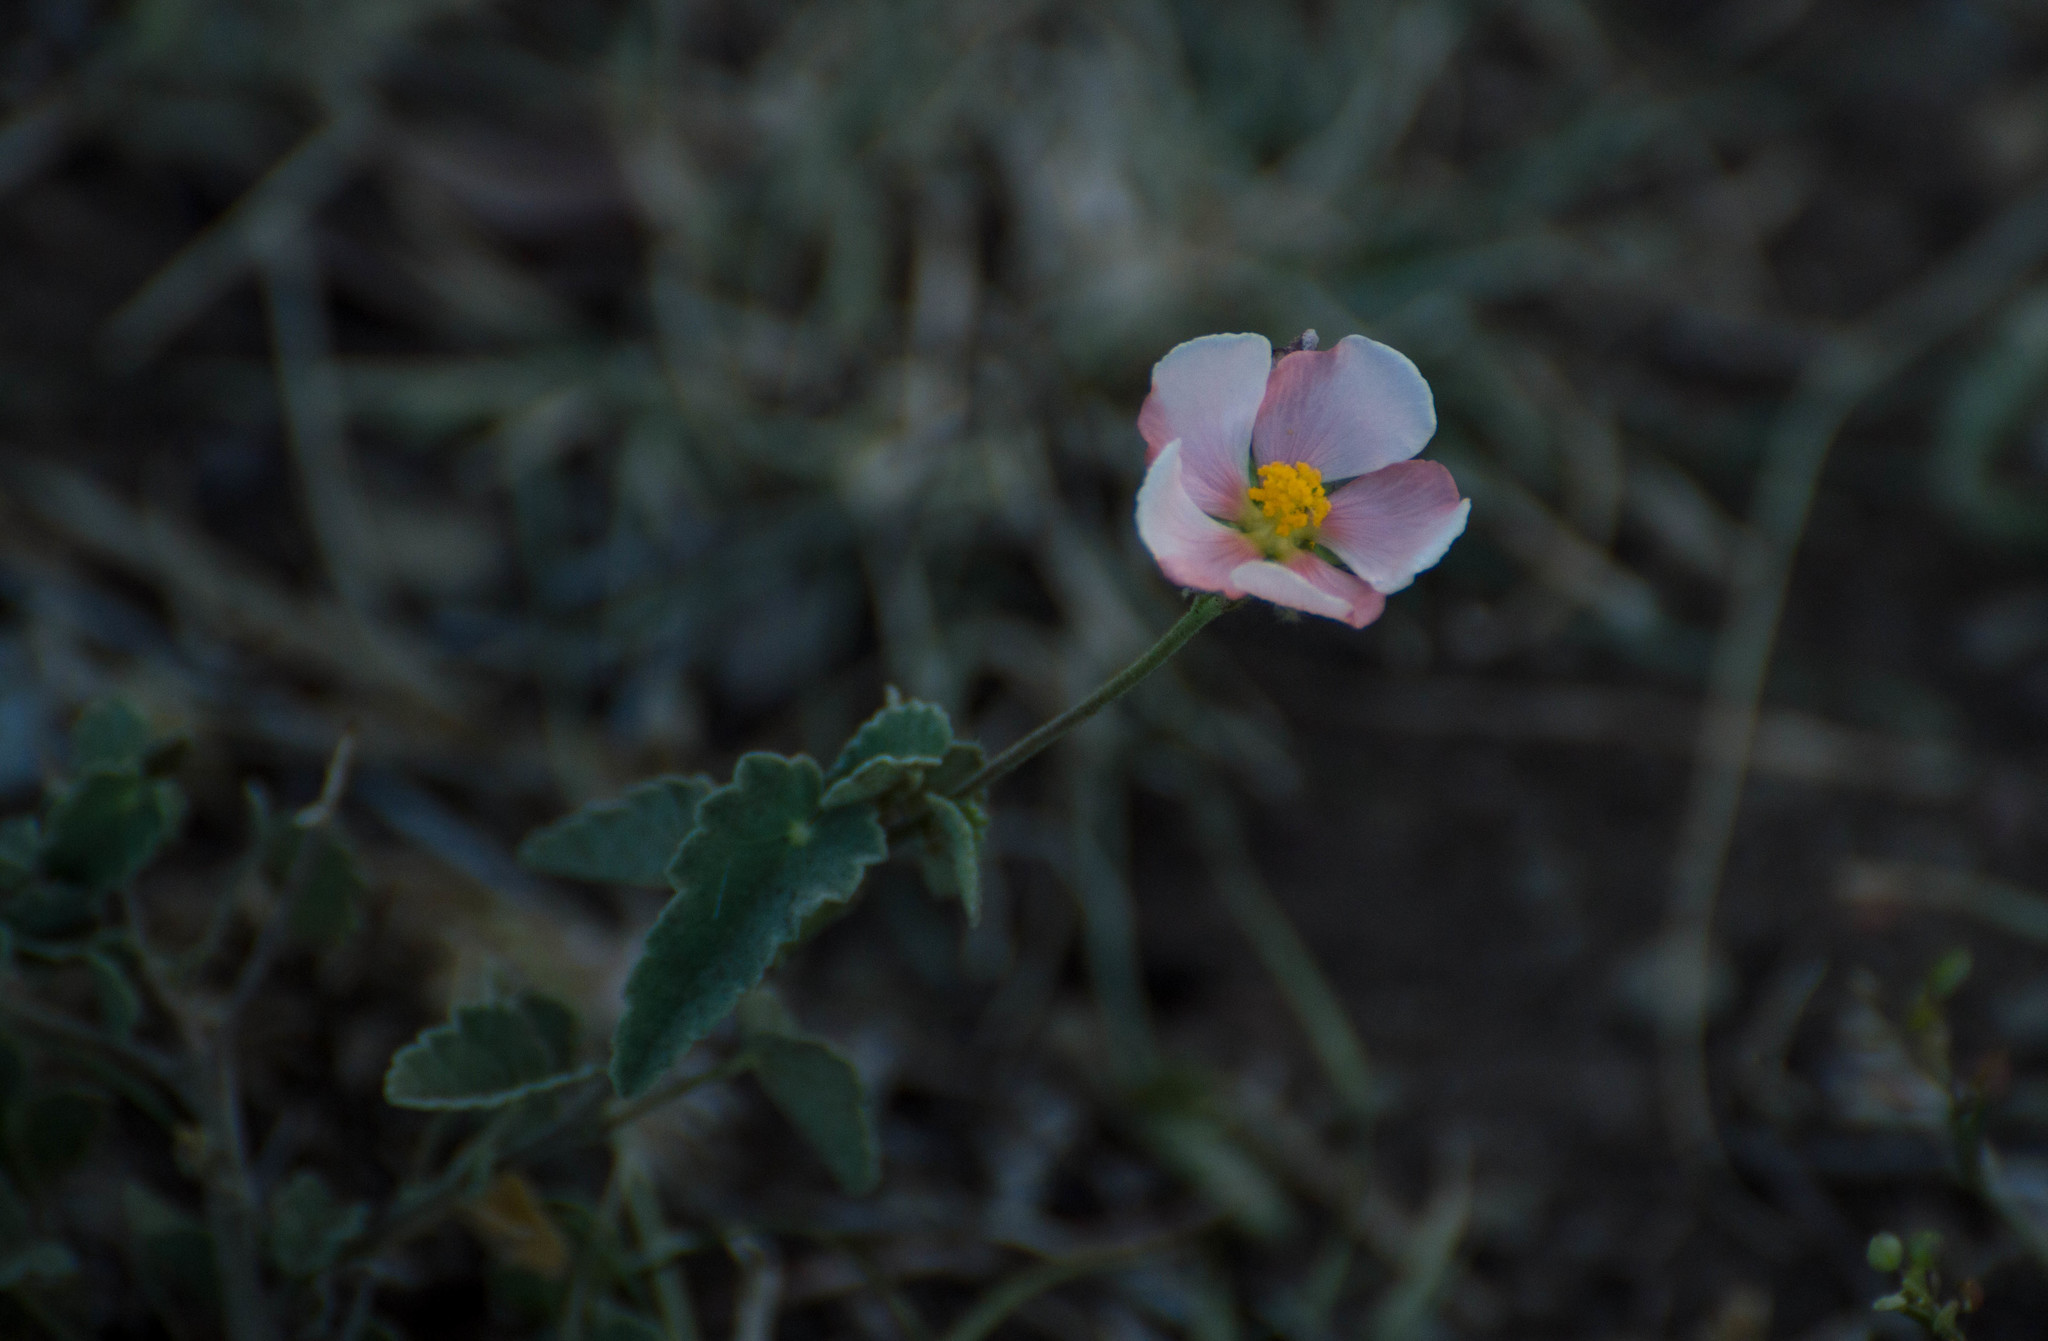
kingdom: Plantae
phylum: Tracheophyta
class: Magnoliopsida
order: Malvales
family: Malvaceae
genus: Abutilon
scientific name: Abutilon terminale
